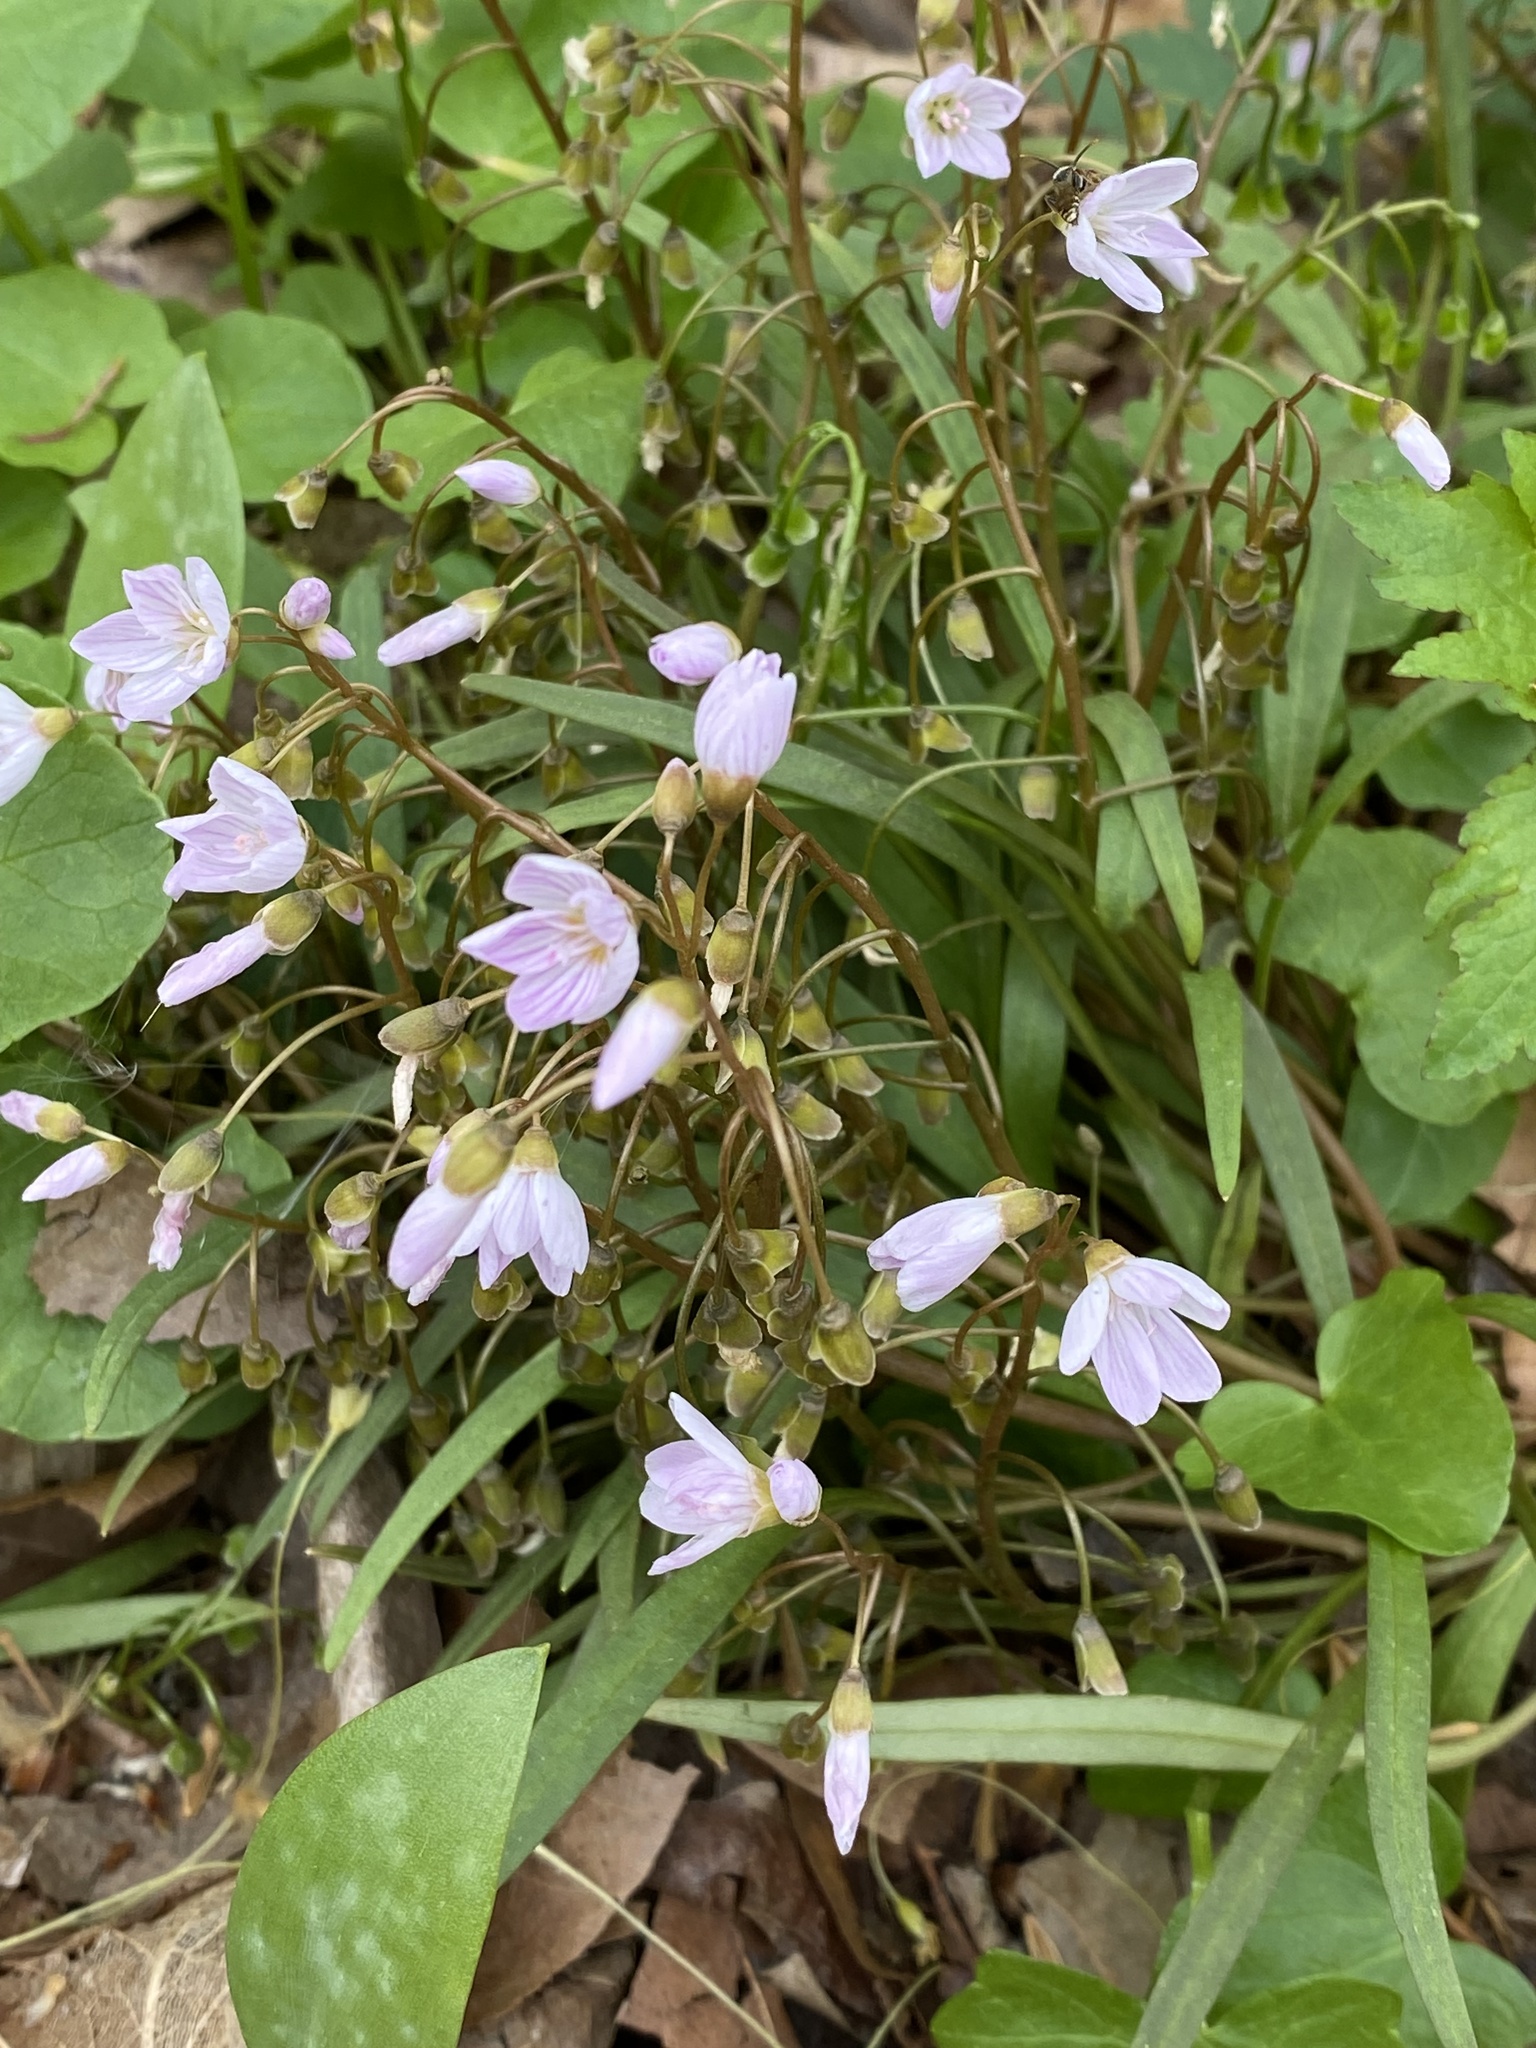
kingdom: Plantae
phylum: Tracheophyta
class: Magnoliopsida
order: Caryophyllales
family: Montiaceae
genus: Claytonia
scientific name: Claytonia virginica
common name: Virginia springbeauty
